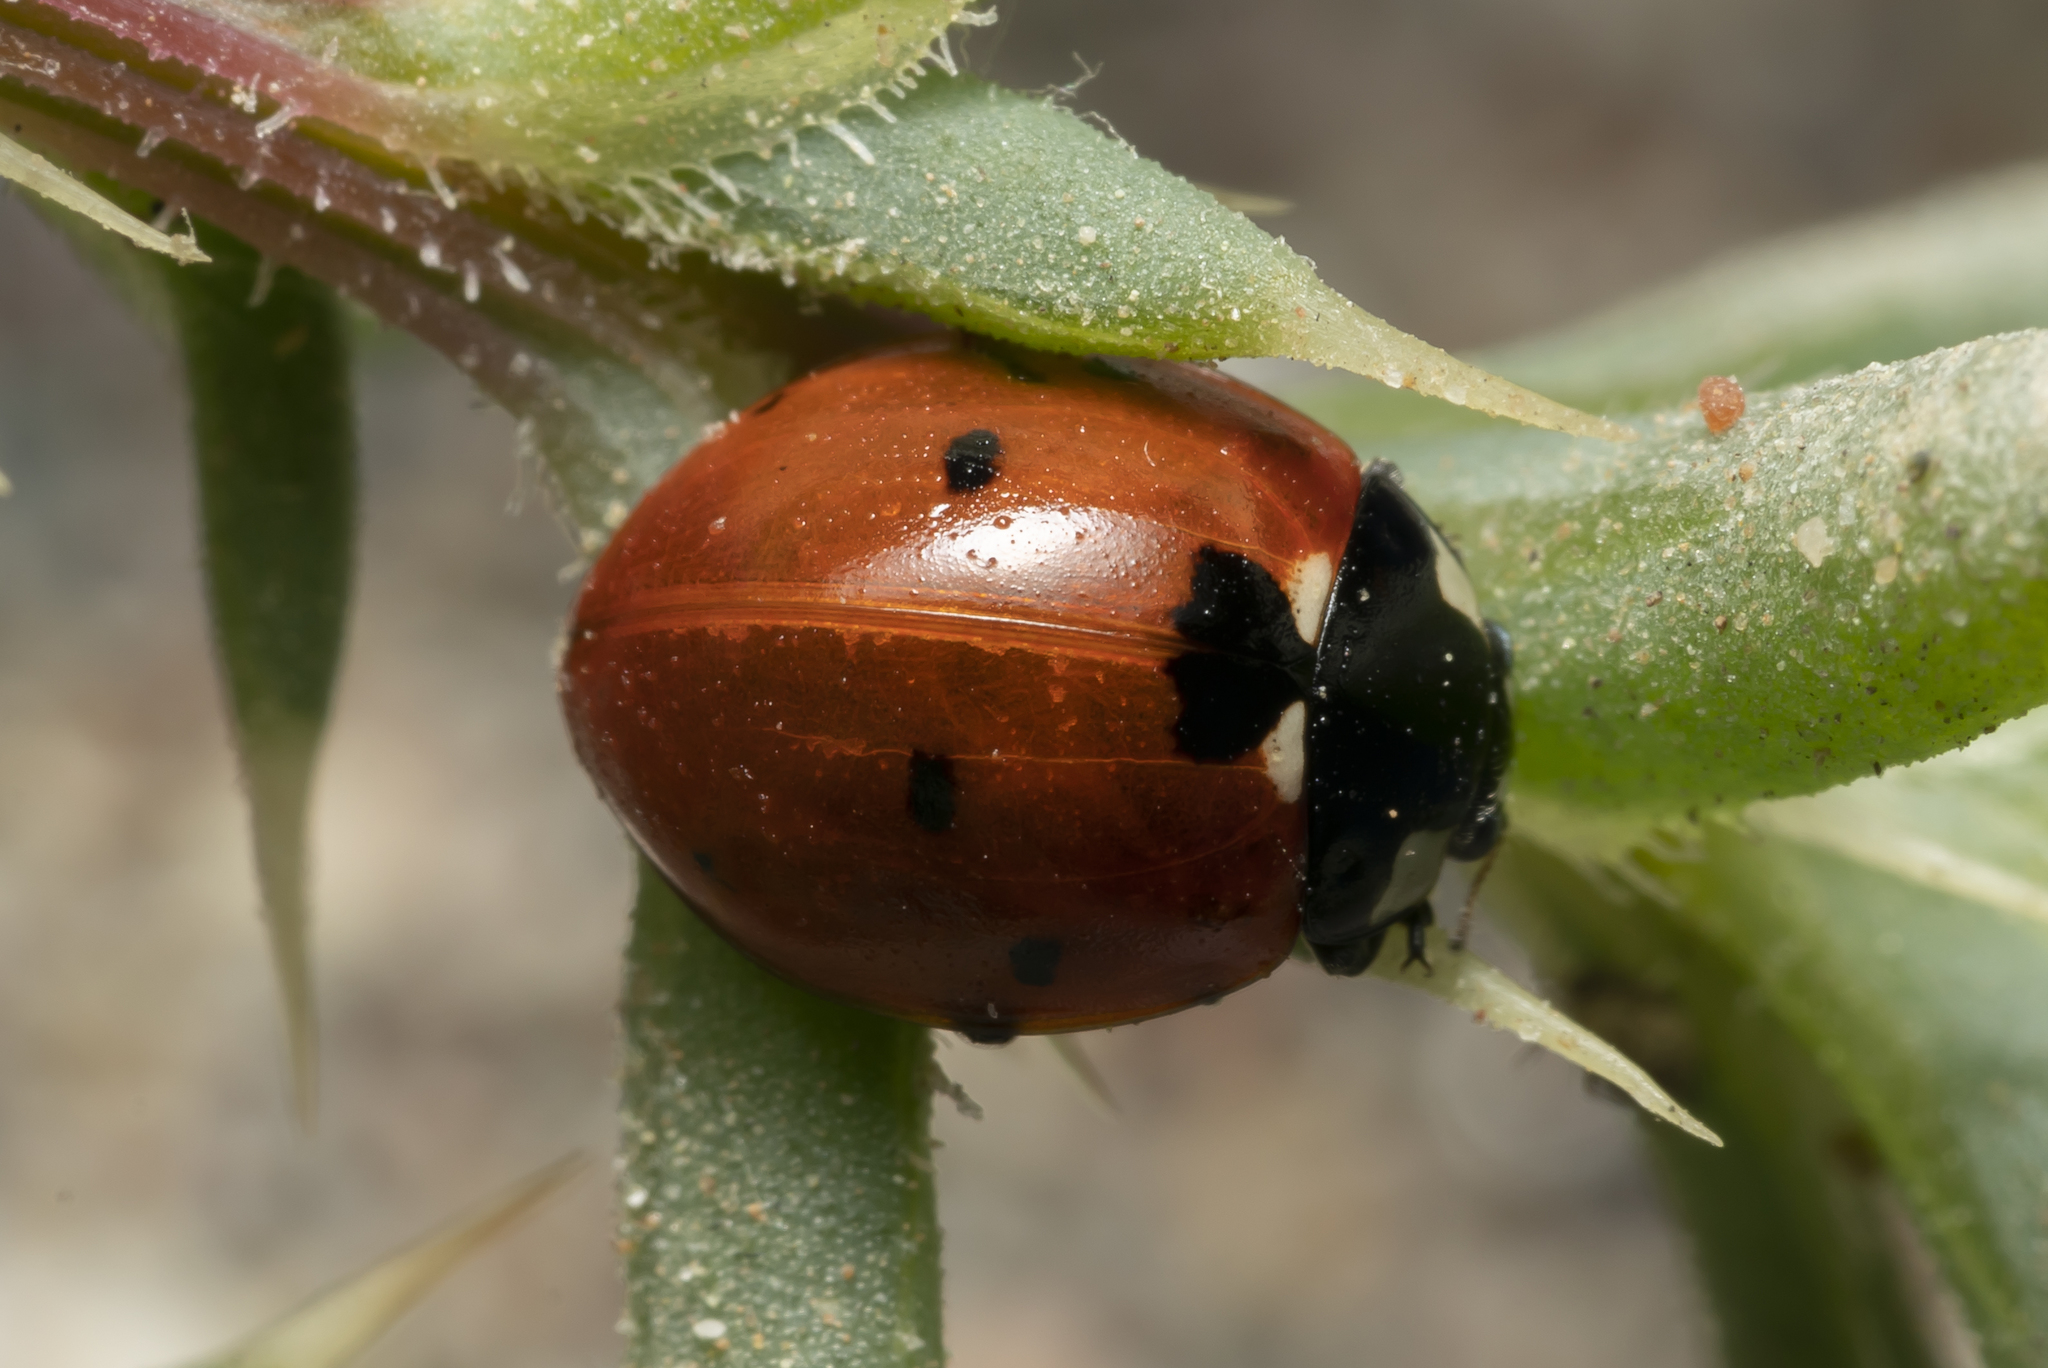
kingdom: Animalia
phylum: Arthropoda
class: Insecta
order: Coleoptera
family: Coccinellidae
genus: Coccinella
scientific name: Coccinella septempunctata
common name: Sevenspotted lady beetle
